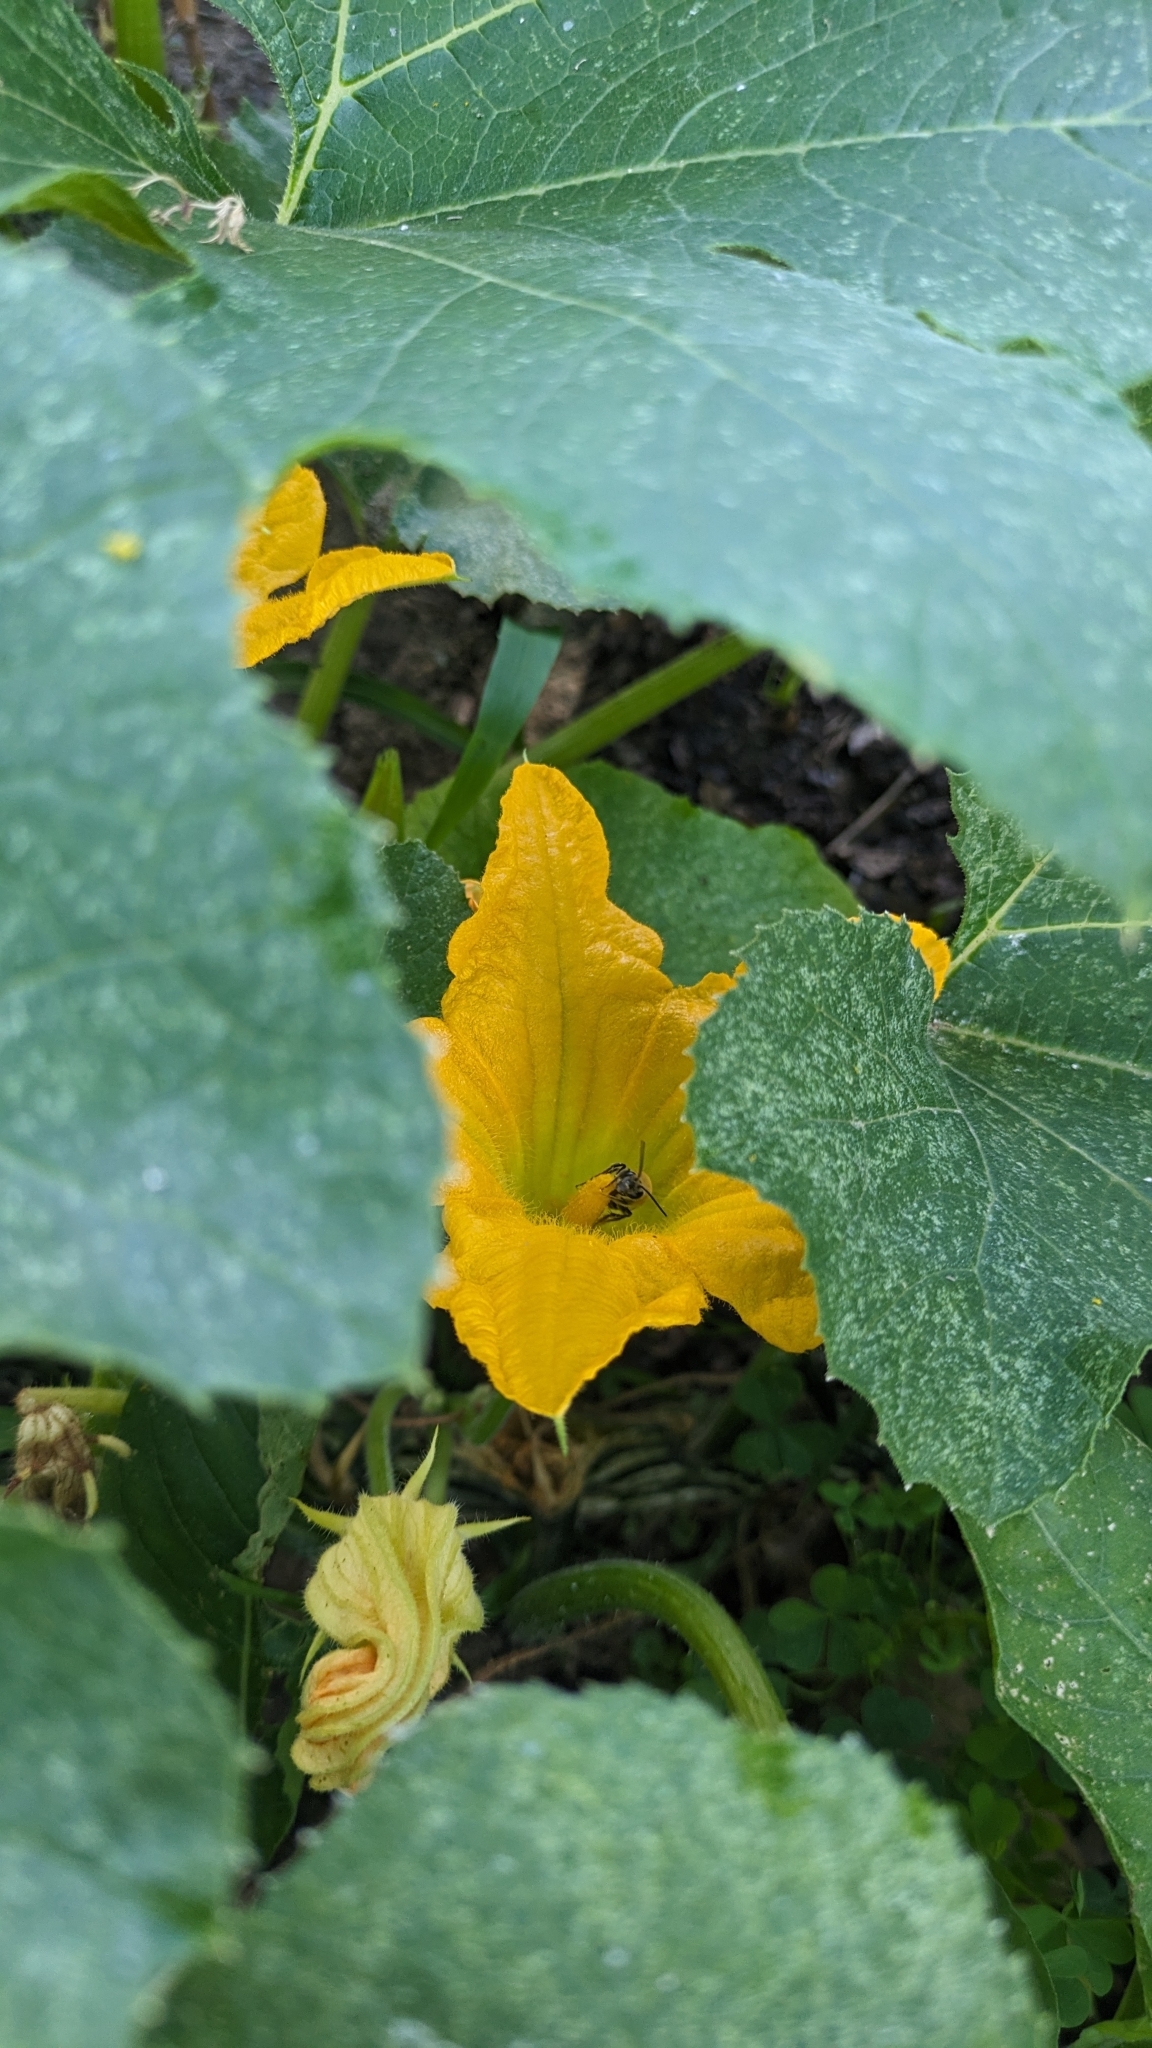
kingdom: Animalia
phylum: Arthropoda
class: Insecta
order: Hymenoptera
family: Apidae
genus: Peponapis
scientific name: Peponapis pruinosa
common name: Pruinose squash bee
